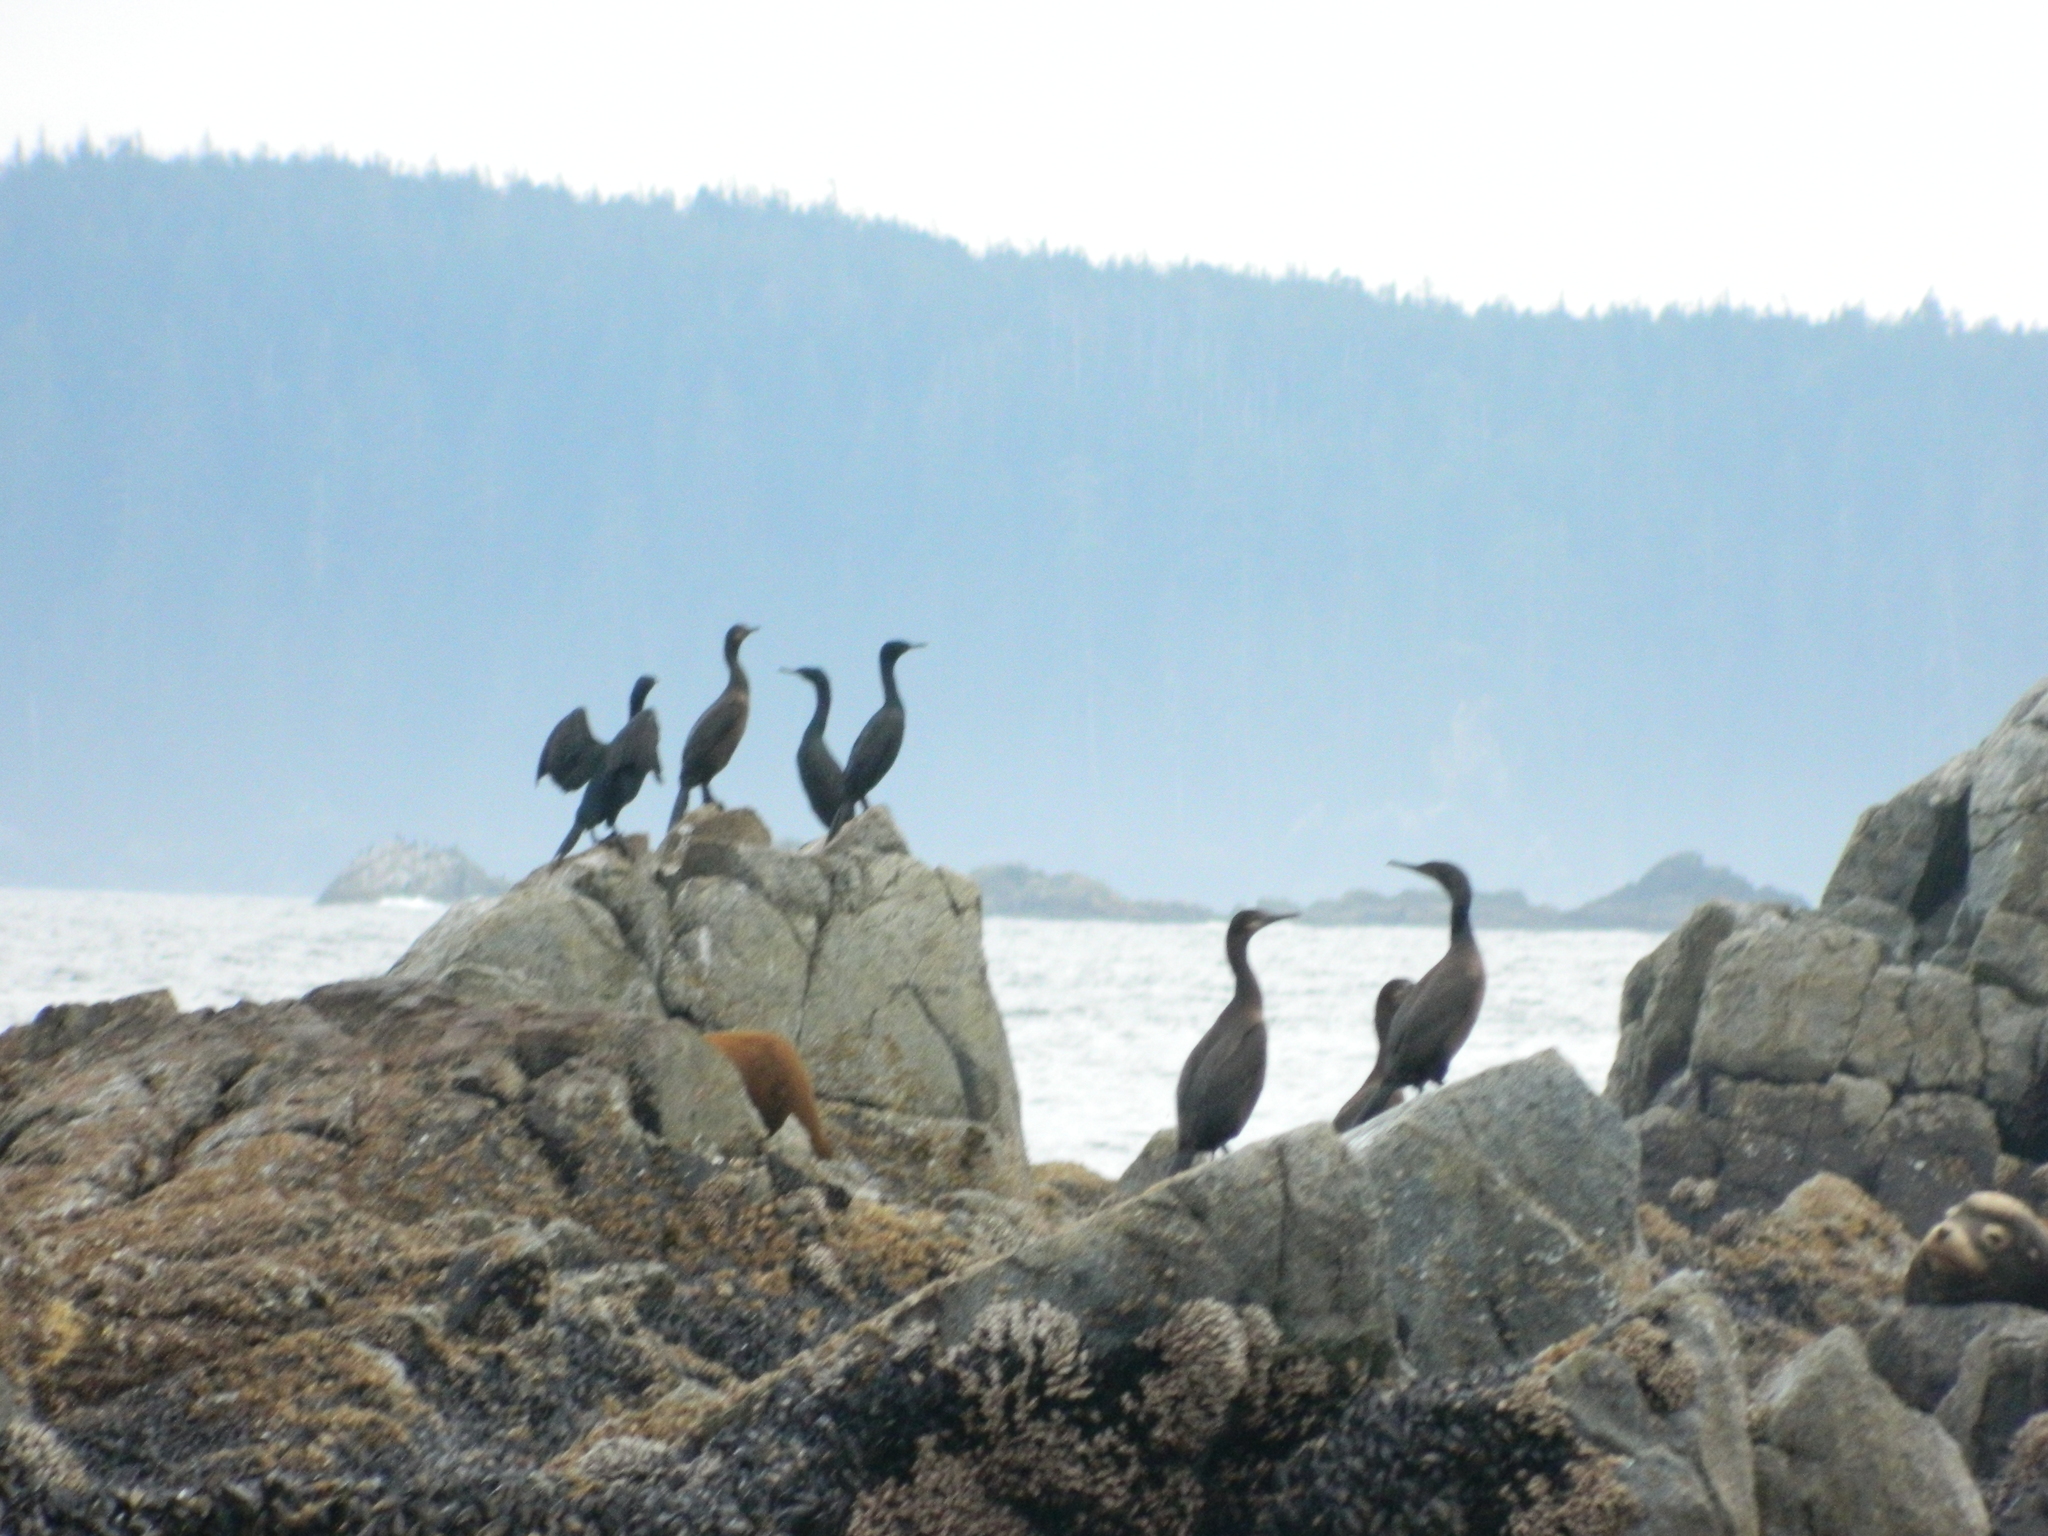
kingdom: Animalia
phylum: Chordata
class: Aves
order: Suliformes
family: Phalacrocoracidae
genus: Phalacrocorax
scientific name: Phalacrocorax auritus
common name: Double-crested cormorant
